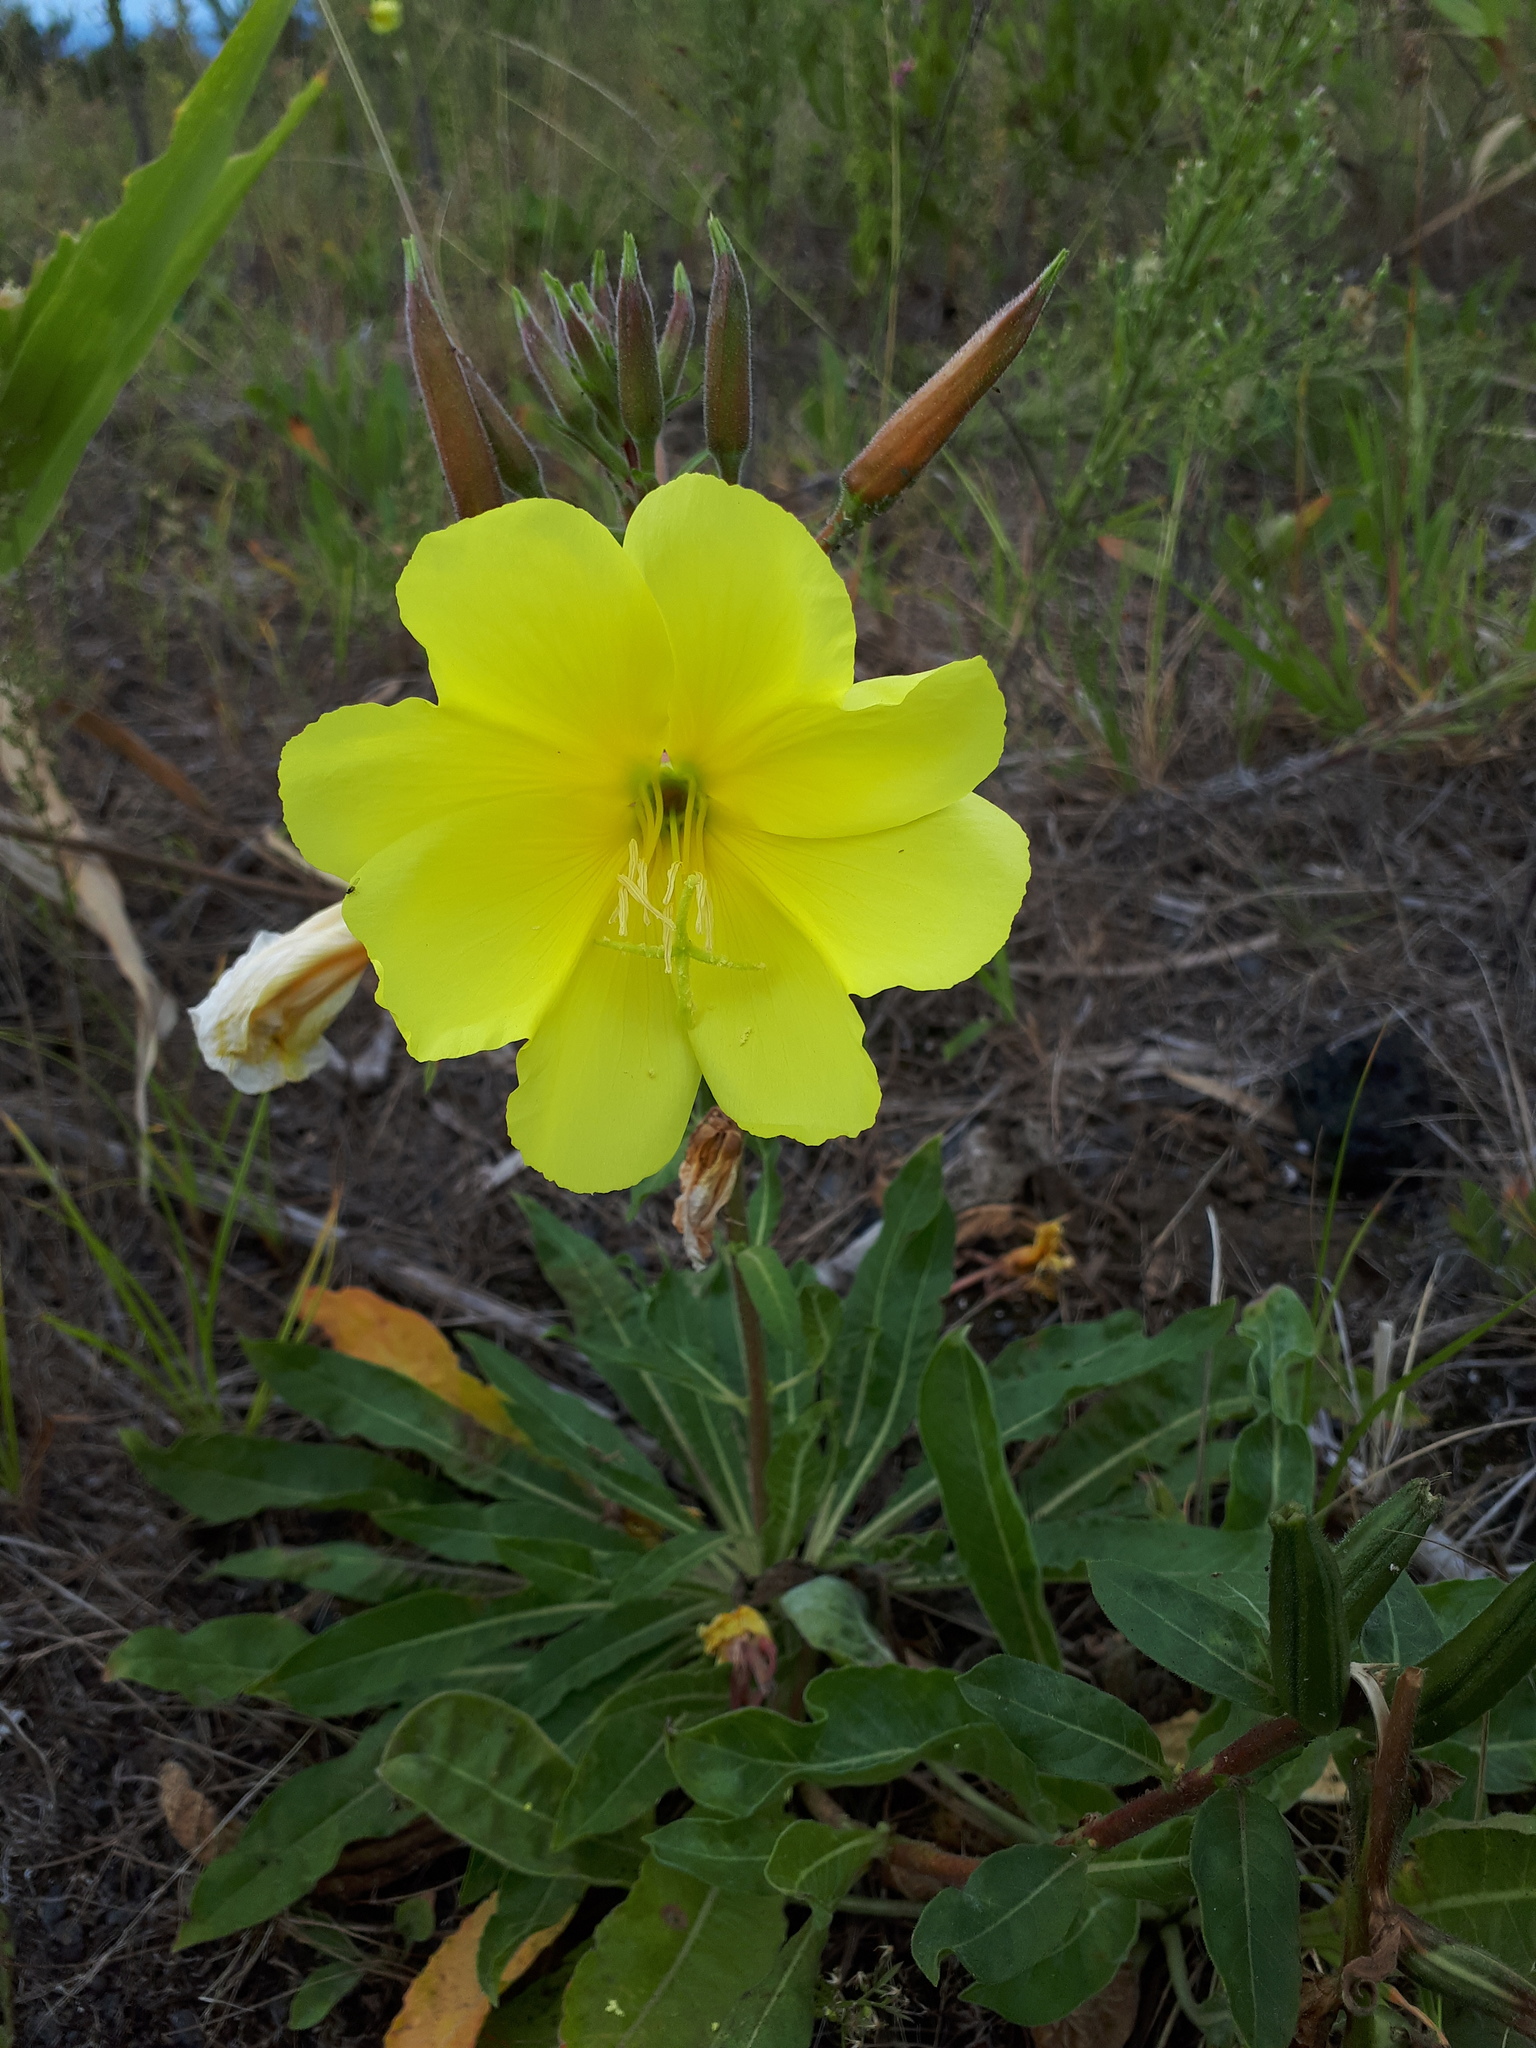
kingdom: Plantae
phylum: Tracheophyta
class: Magnoliopsida
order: Myrtales
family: Onagraceae
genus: Oenothera
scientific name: Oenothera glazioviana
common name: Large-flowered evening-primrose
